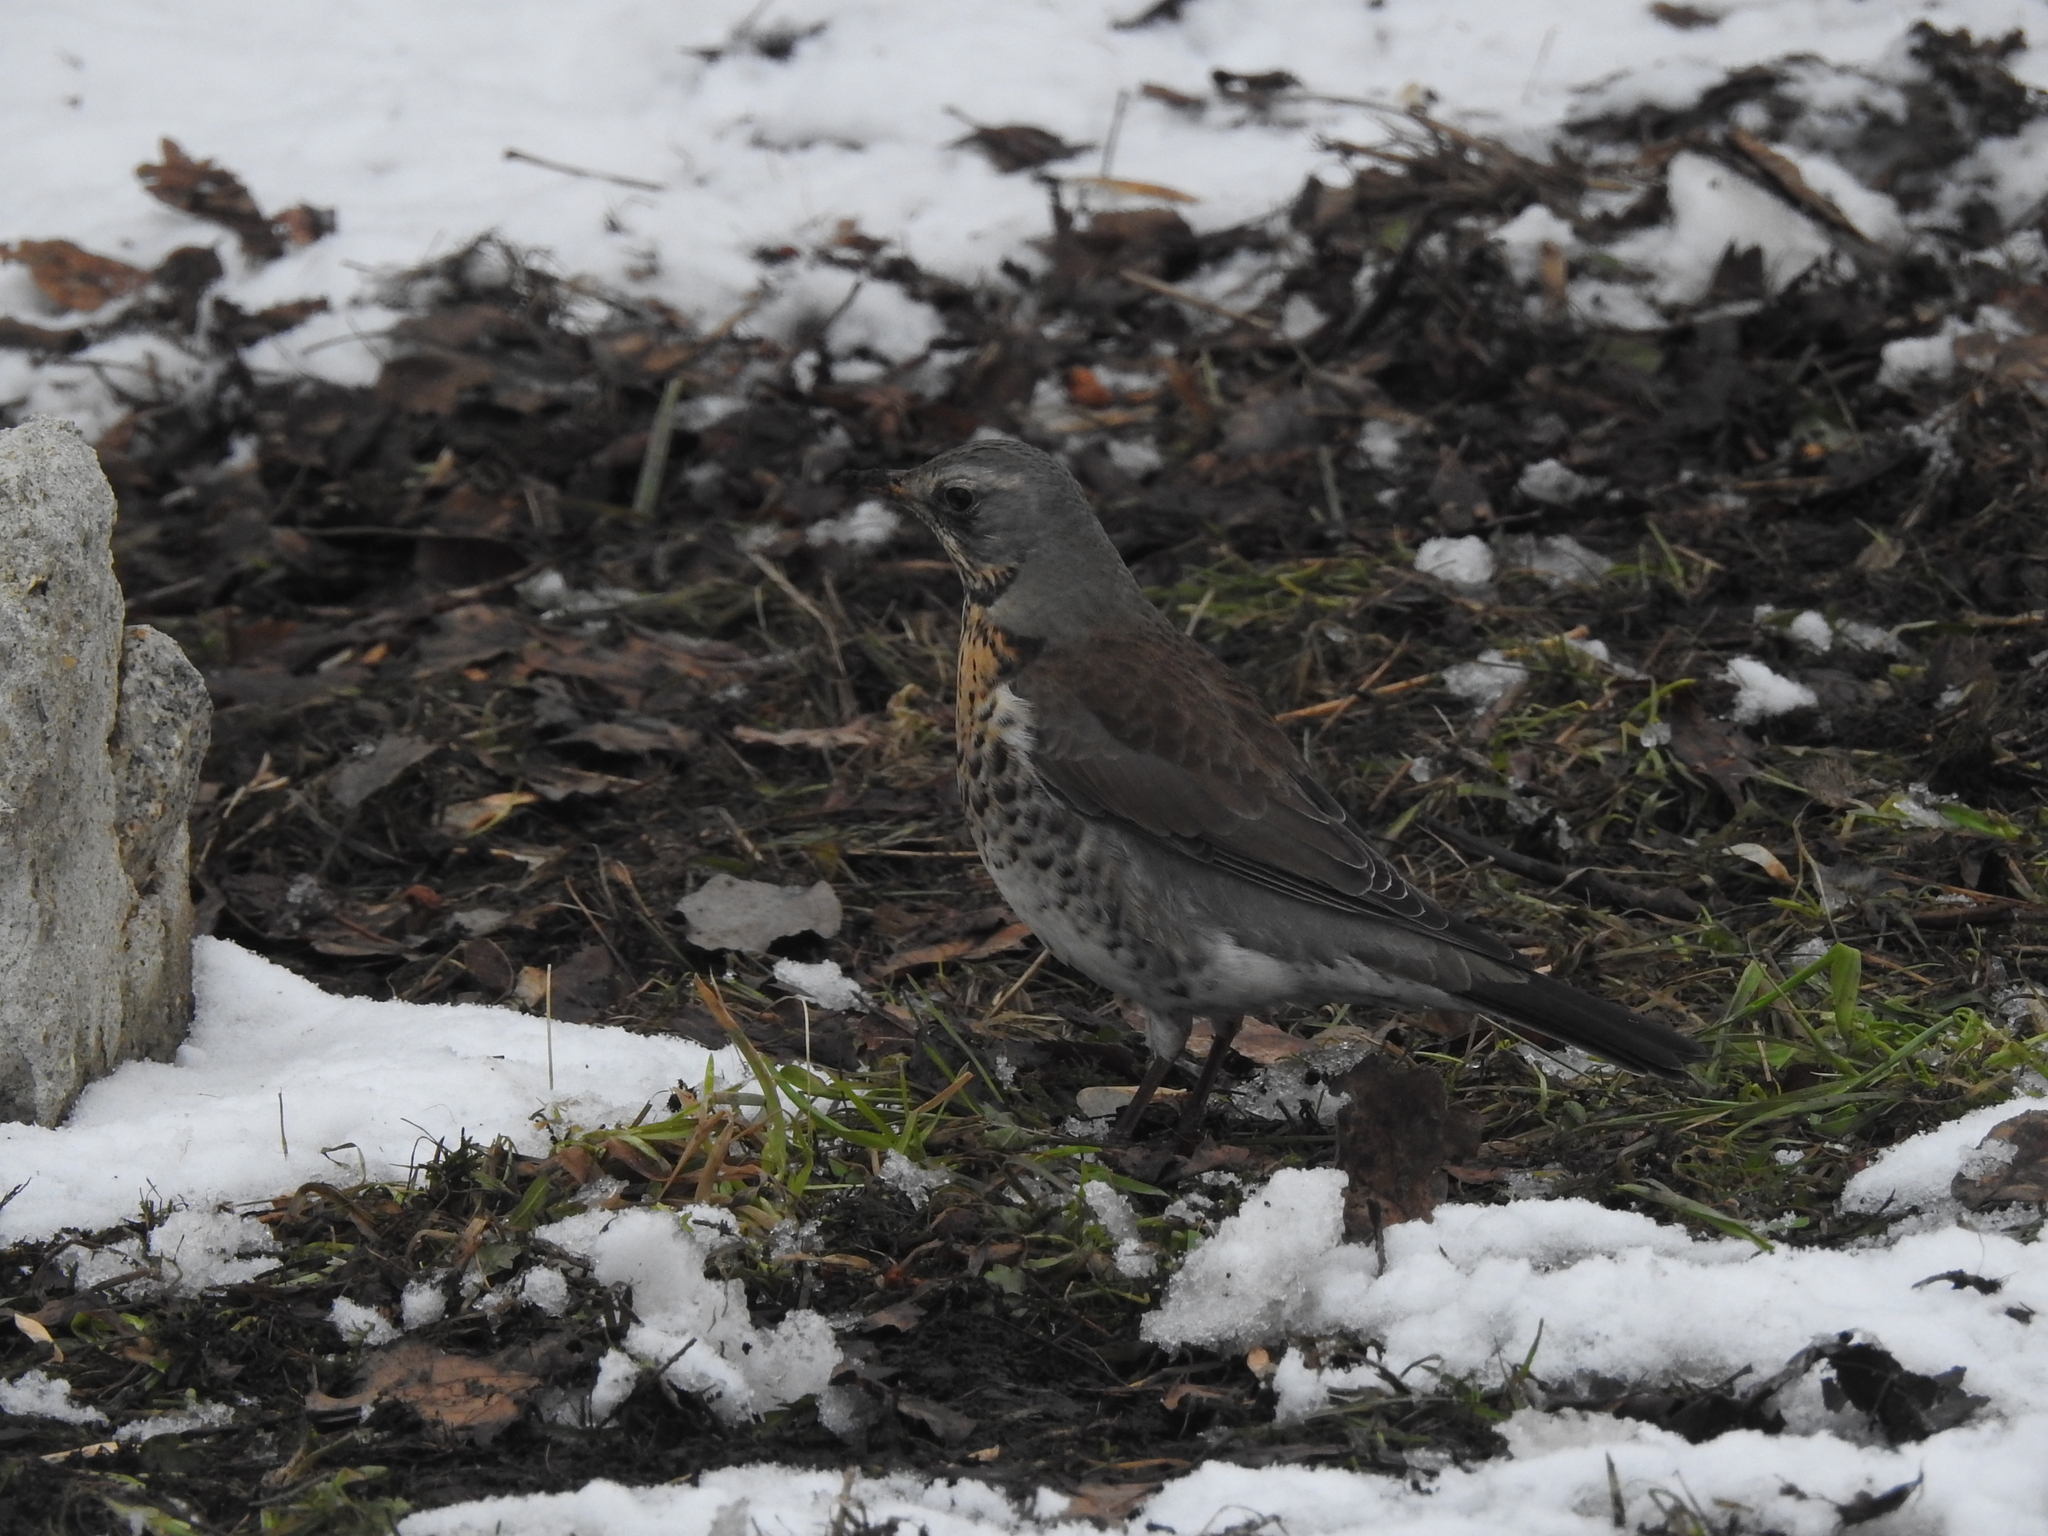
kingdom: Animalia
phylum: Chordata
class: Aves
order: Passeriformes
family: Turdidae
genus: Turdus
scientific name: Turdus pilaris
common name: Fieldfare
